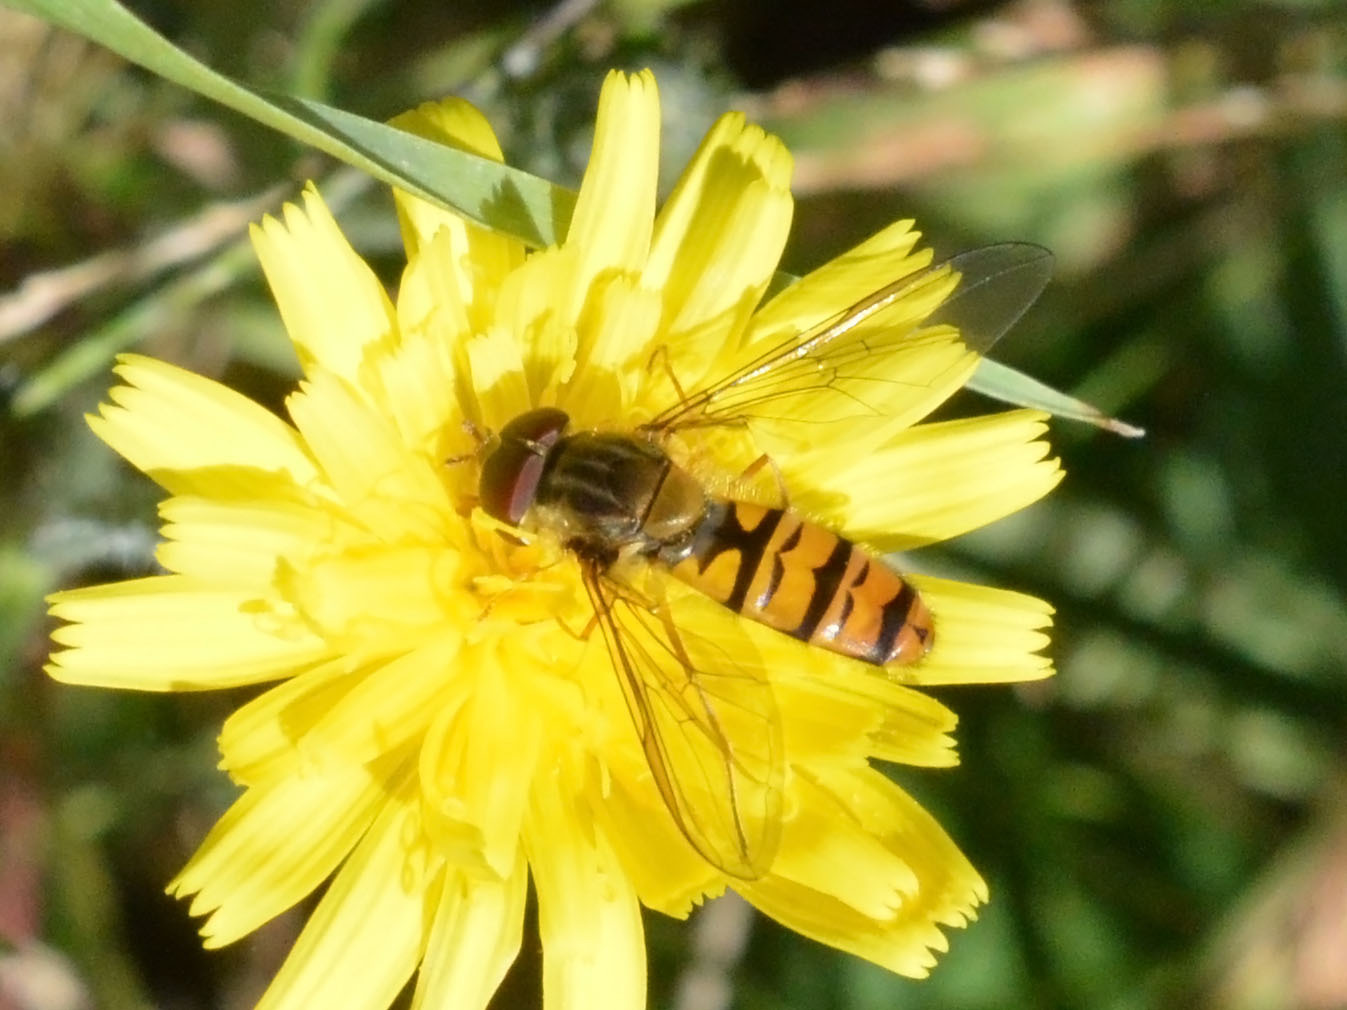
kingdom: Animalia
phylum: Arthropoda
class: Insecta
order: Diptera
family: Syrphidae
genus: Episyrphus
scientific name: Episyrphus balteatus
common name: Marmalade hoverfly
